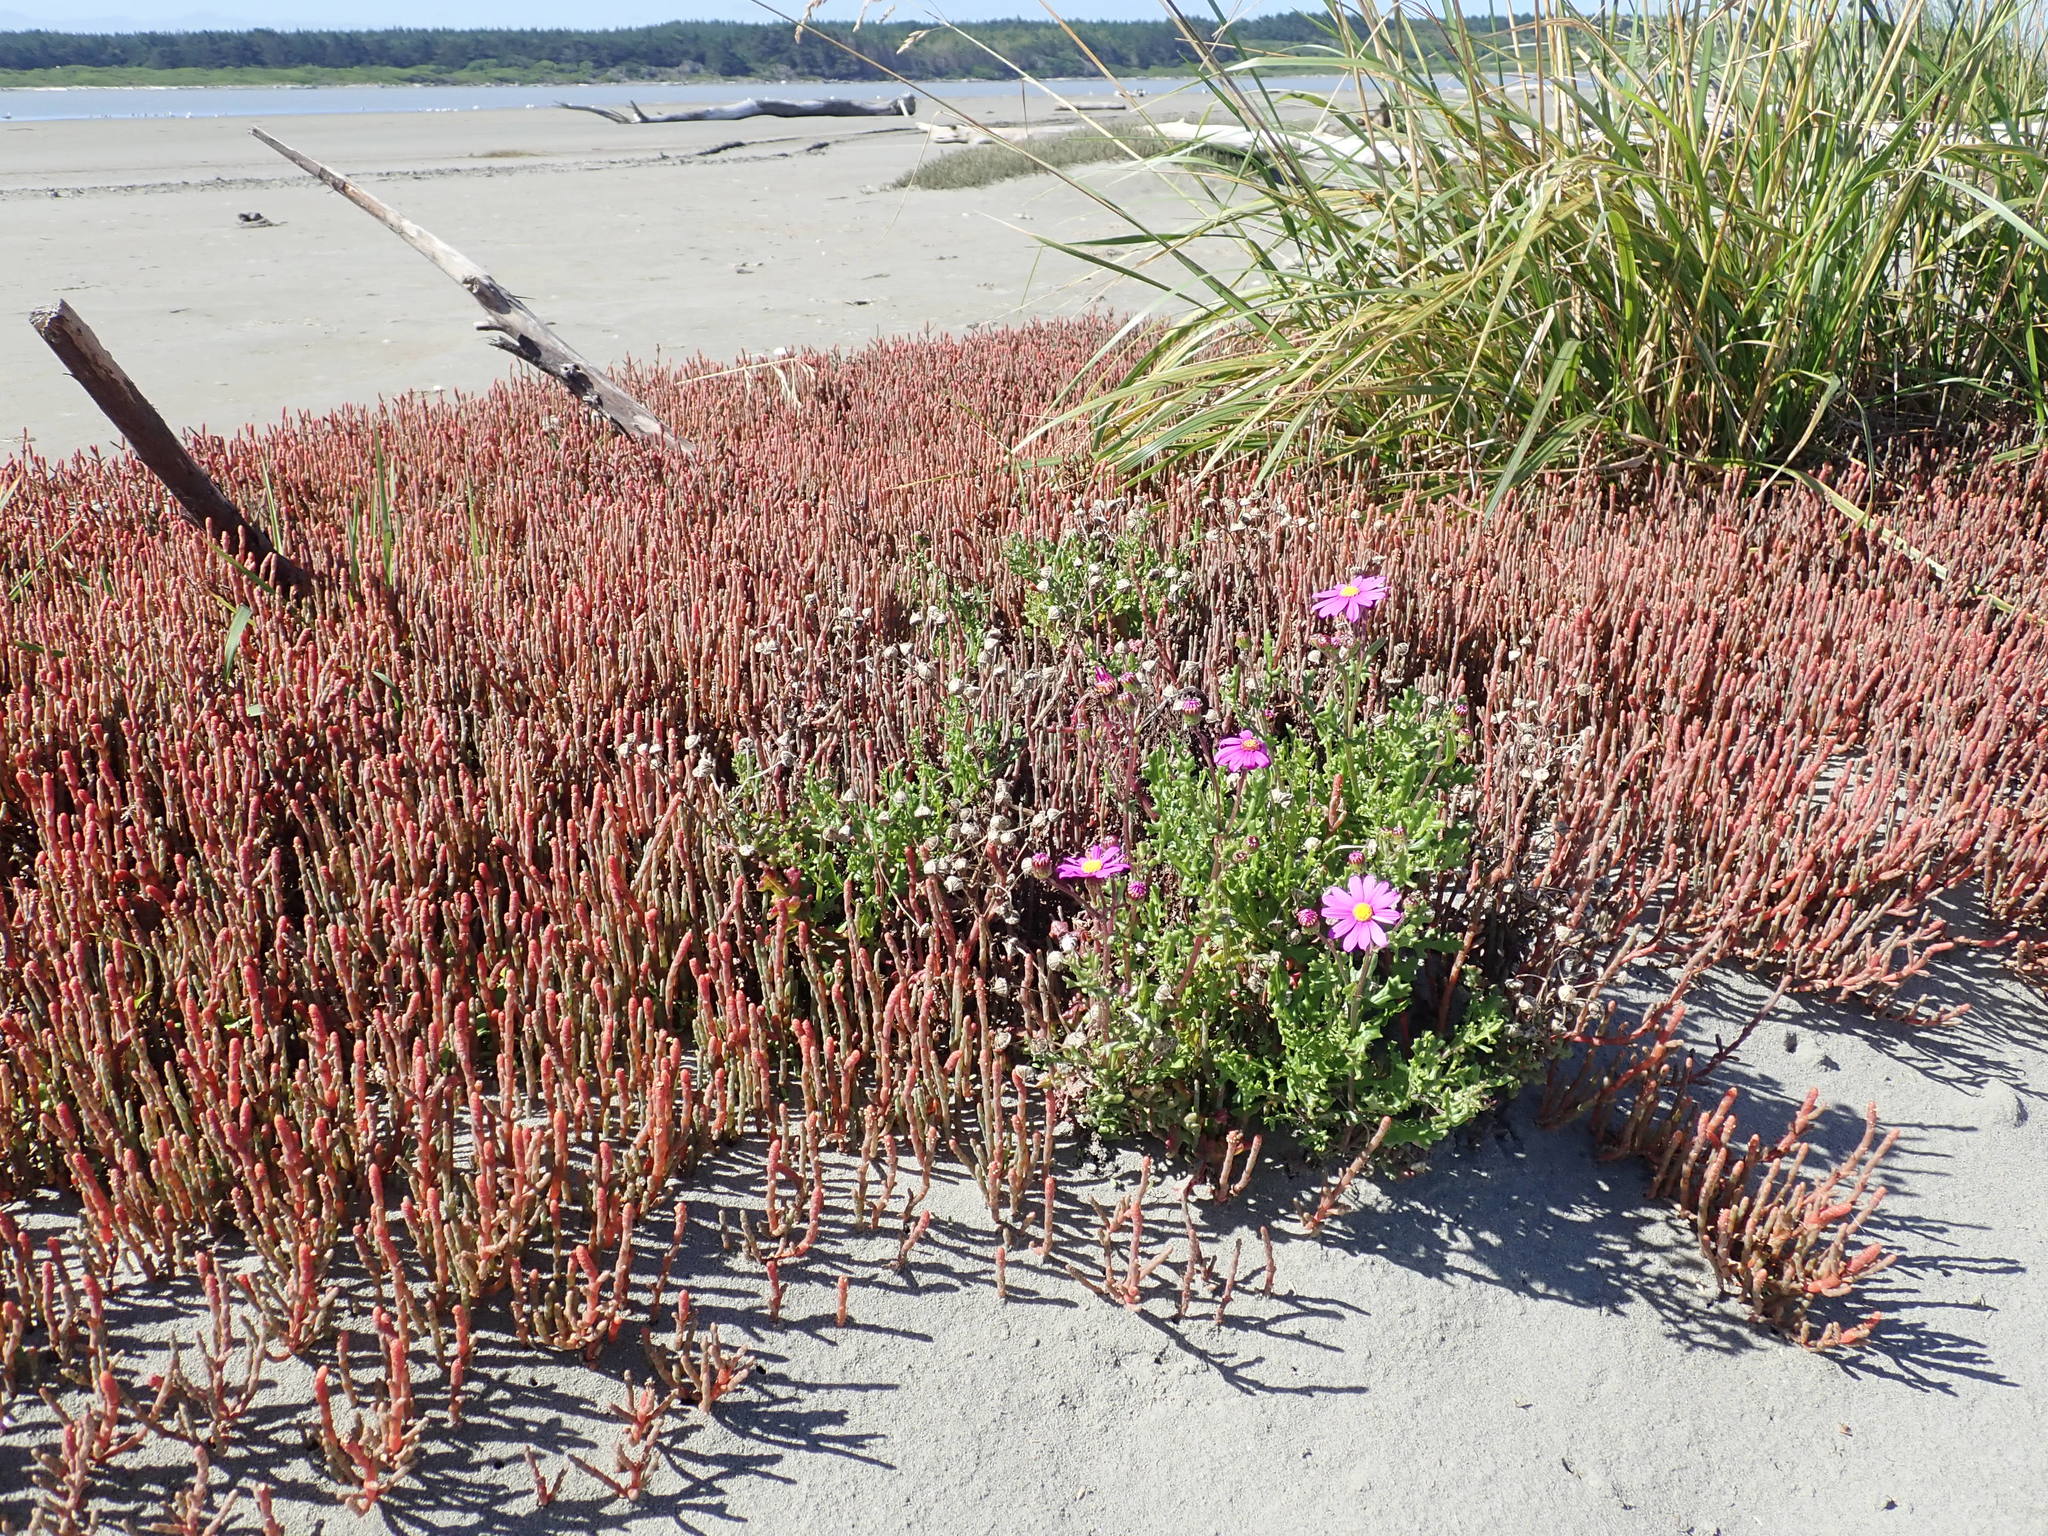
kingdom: Plantae
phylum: Tracheophyta
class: Magnoliopsida
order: Asterales
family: Asteraceae
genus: Senecio
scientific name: Senecio elegans
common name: Purple groundsel
